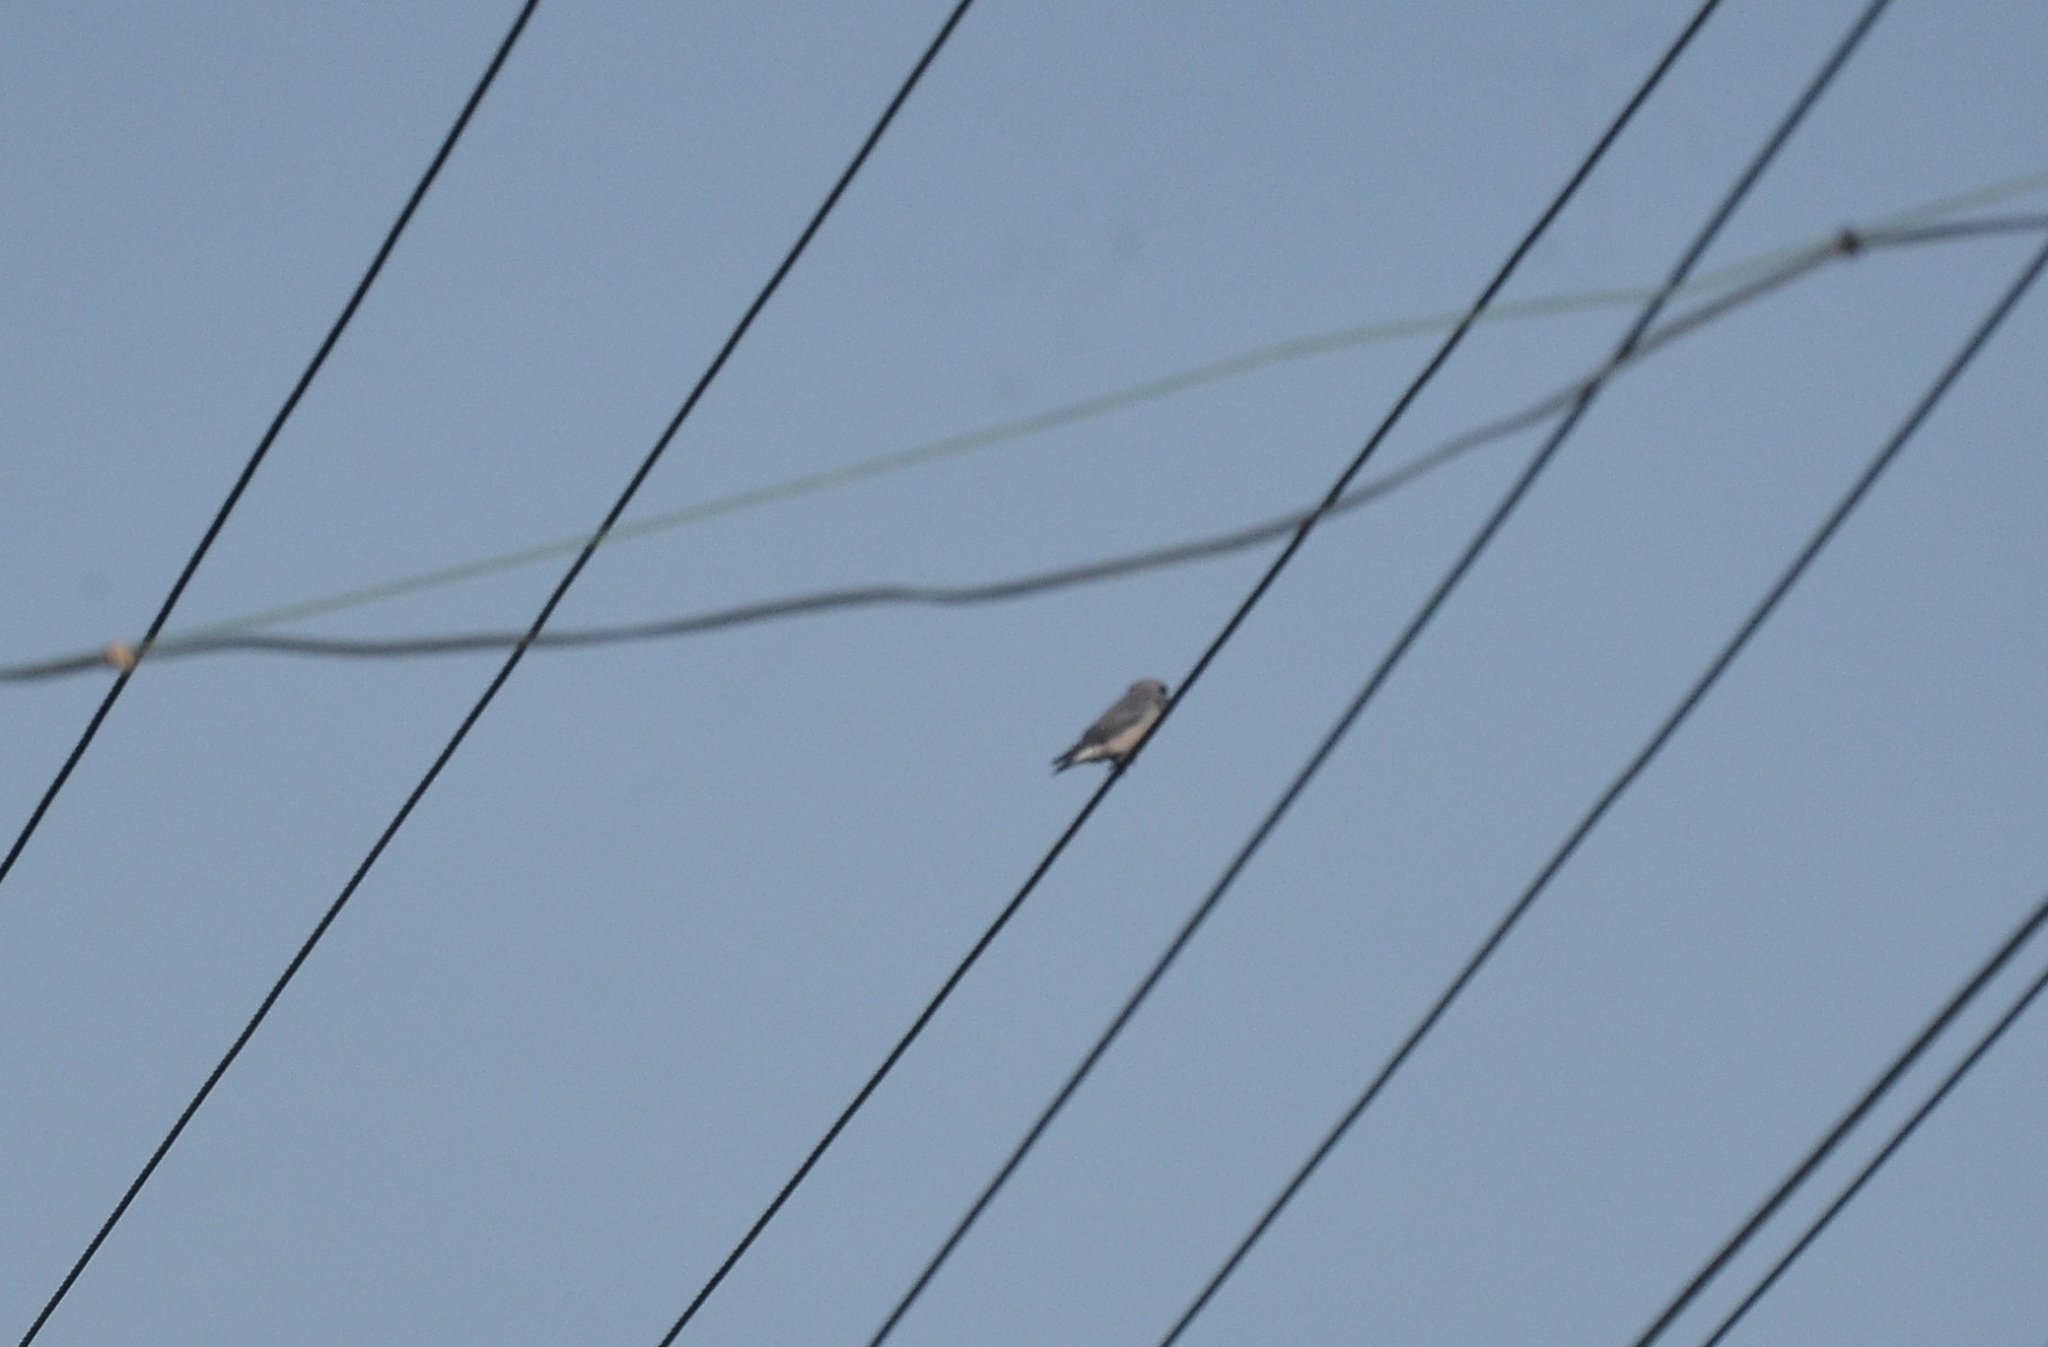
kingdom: Animalia
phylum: Chordata
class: Aves
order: Passeriformes
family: Artamidae
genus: Artamus
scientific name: Artamus fuscus
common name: Ashy woodswallow
